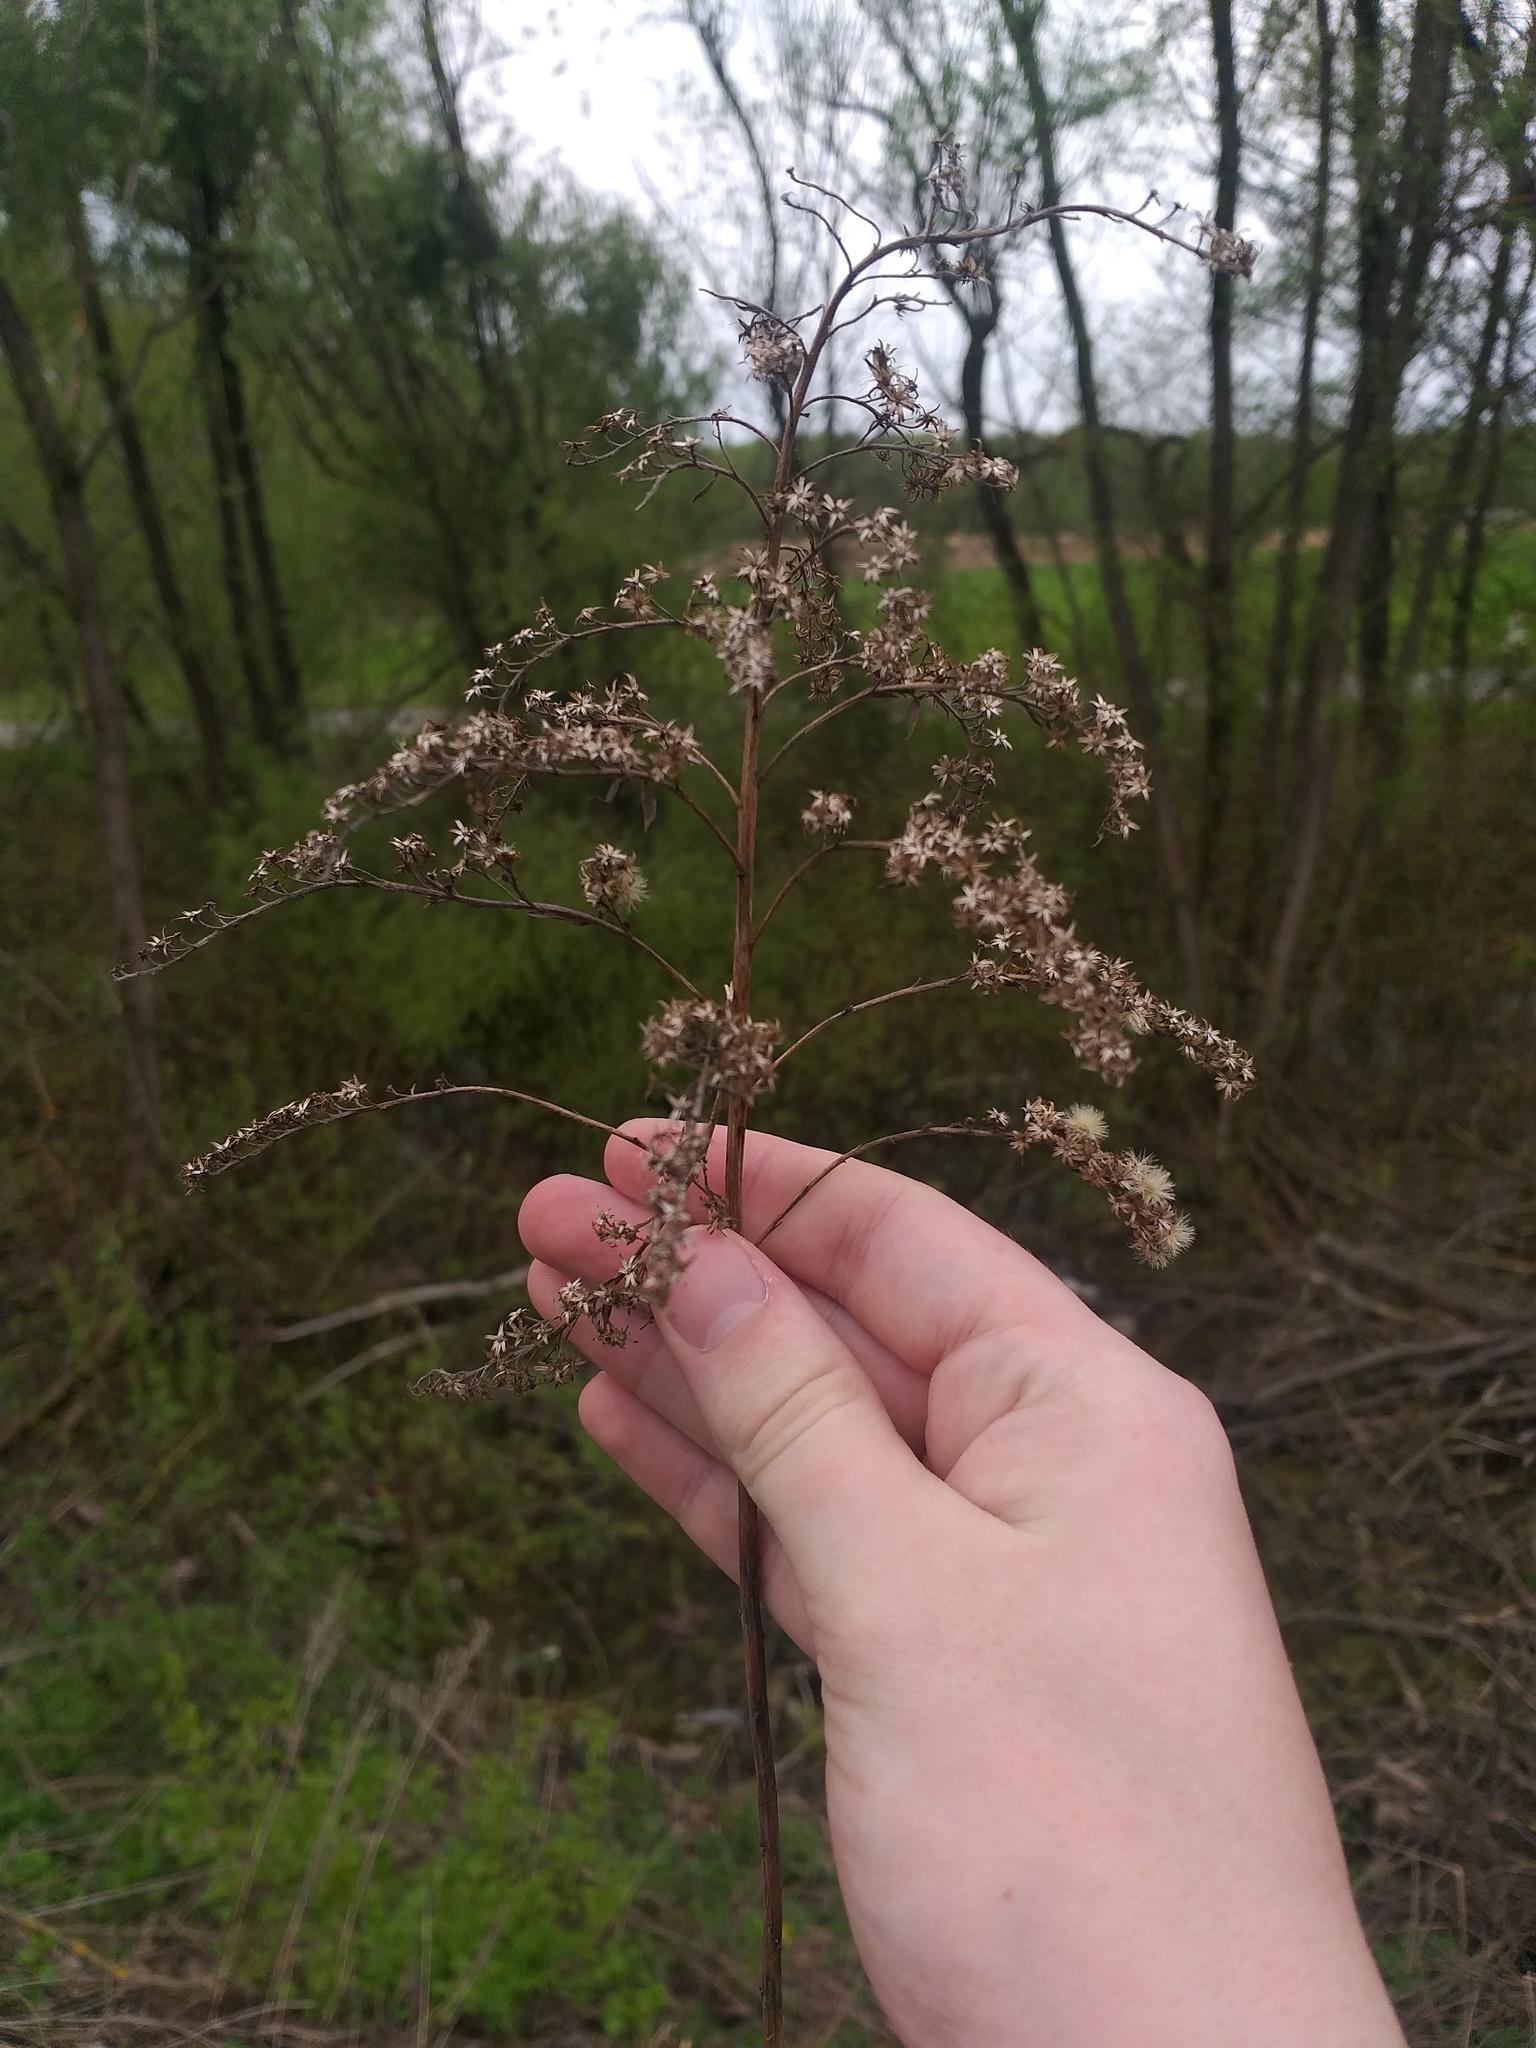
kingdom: Plantae
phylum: Tracheophyta
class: Magnoliopsida
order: Asterales
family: Asteraceae
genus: Solidago
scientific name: Solidago gigantea
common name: Giant goldenrod
